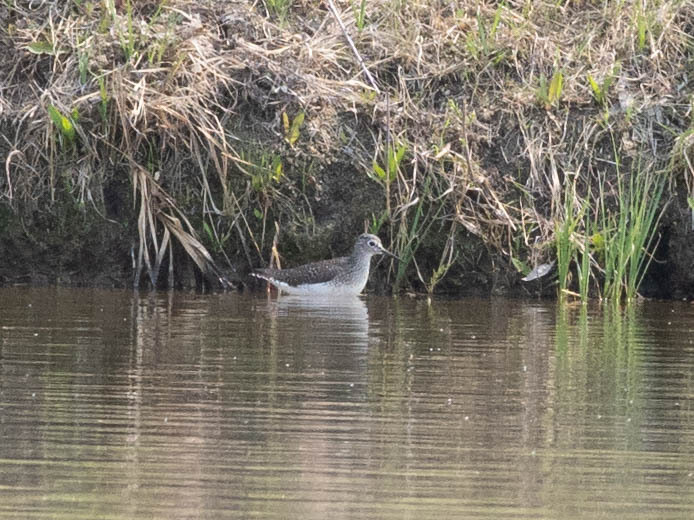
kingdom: Animalia
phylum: Chordata
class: Aves
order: Charadriiformes
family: Scolopacidae
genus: Tringa
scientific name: Tringa solitaria
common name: Solitary sandpiper
